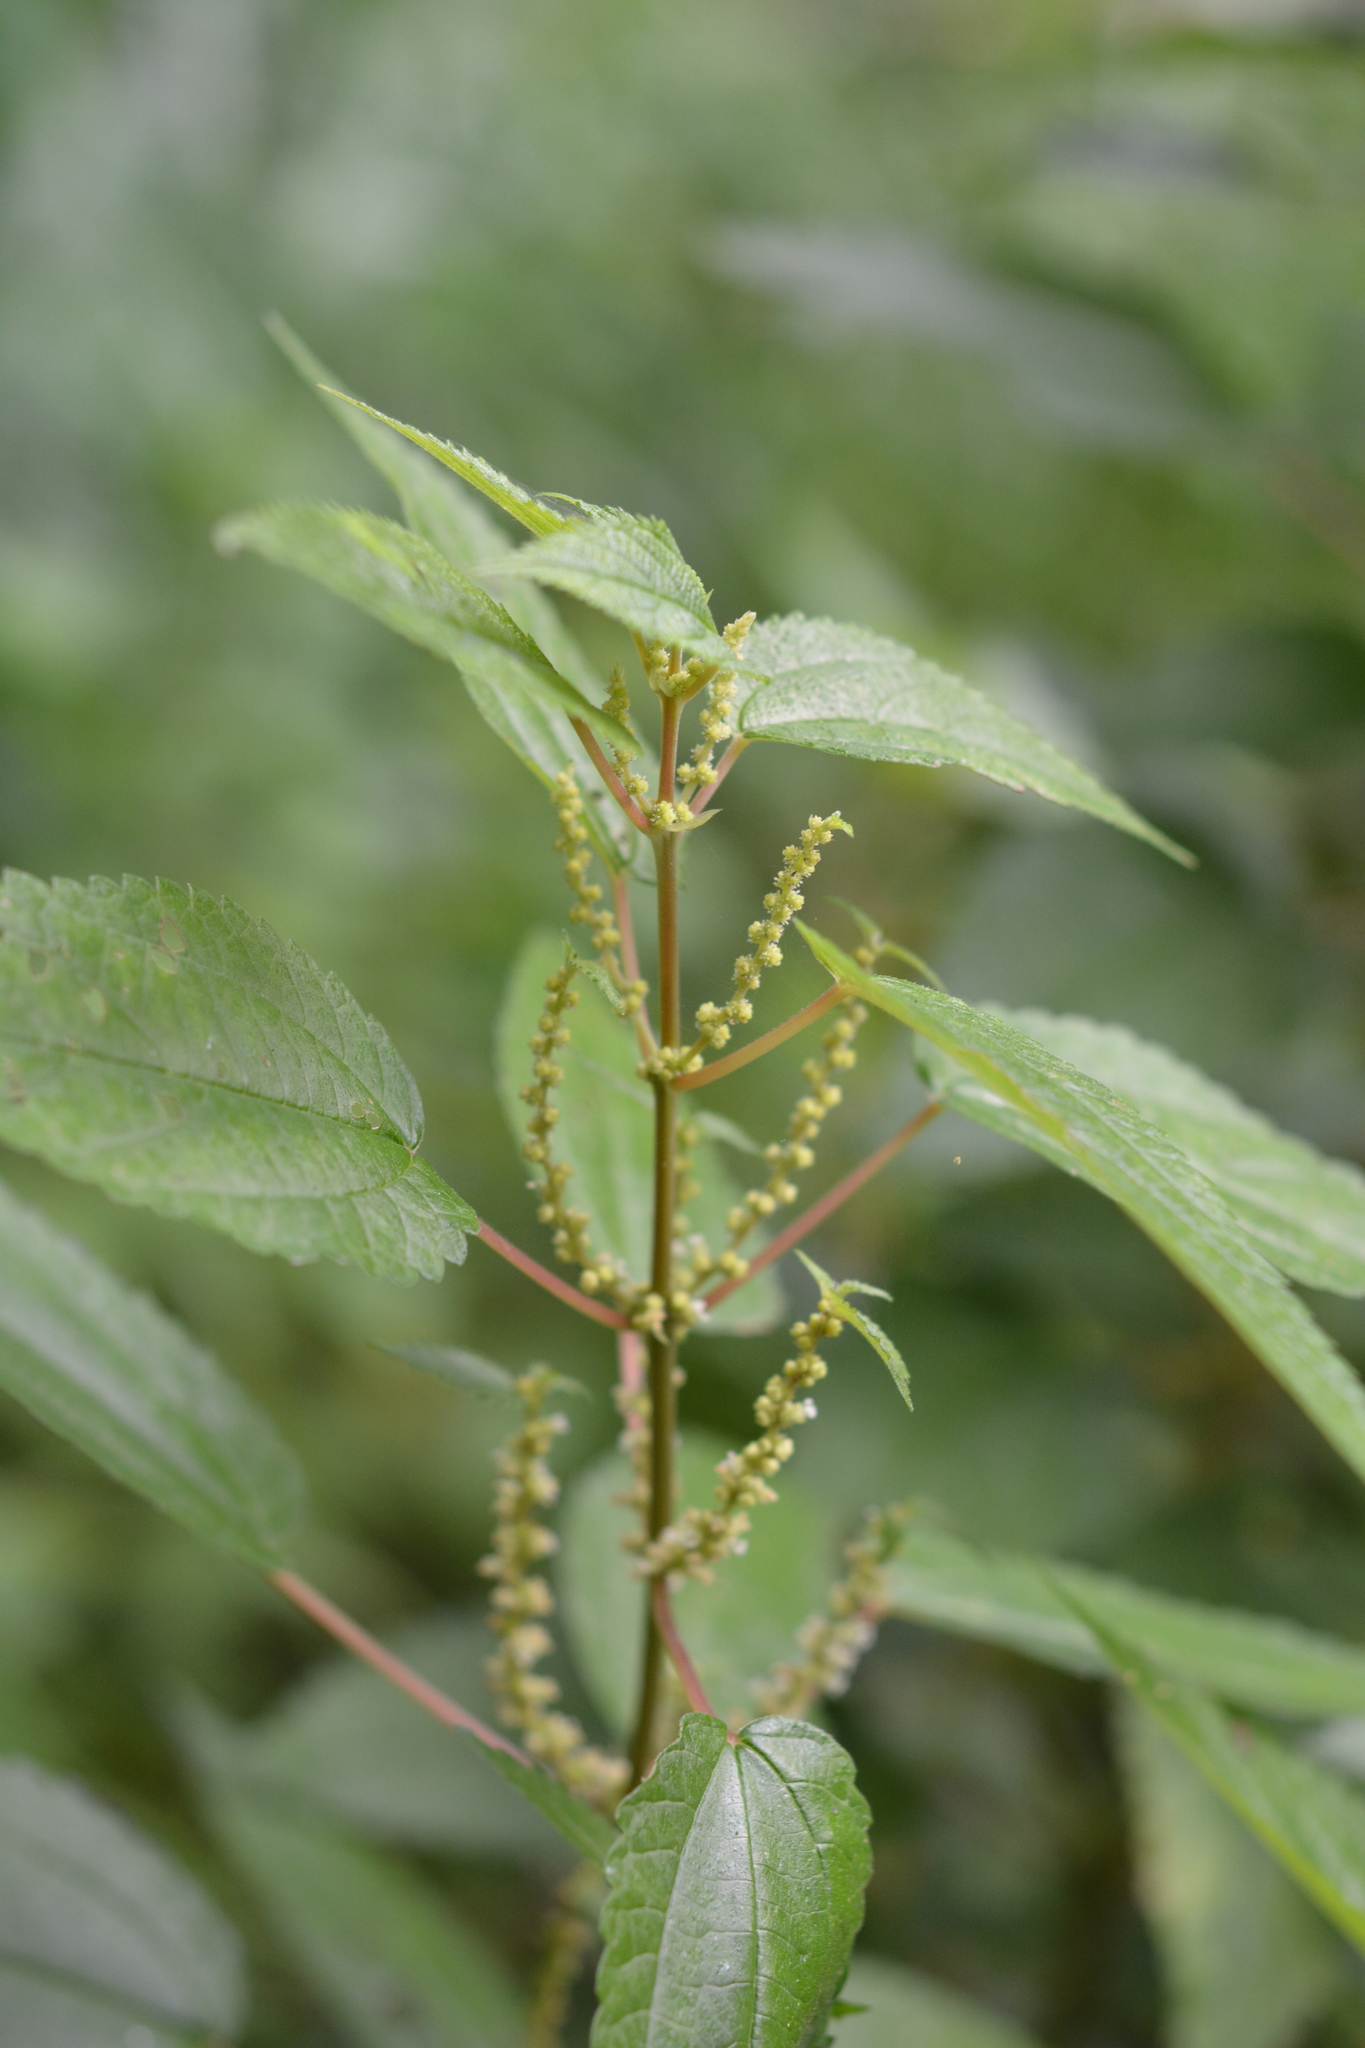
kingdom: Plantae
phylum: Tracheophyta
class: Magnoliopsida
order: Rosales
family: Urticaceae
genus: Boehmeria
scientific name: Boehmeria cylindrica
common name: Bog-hemp
